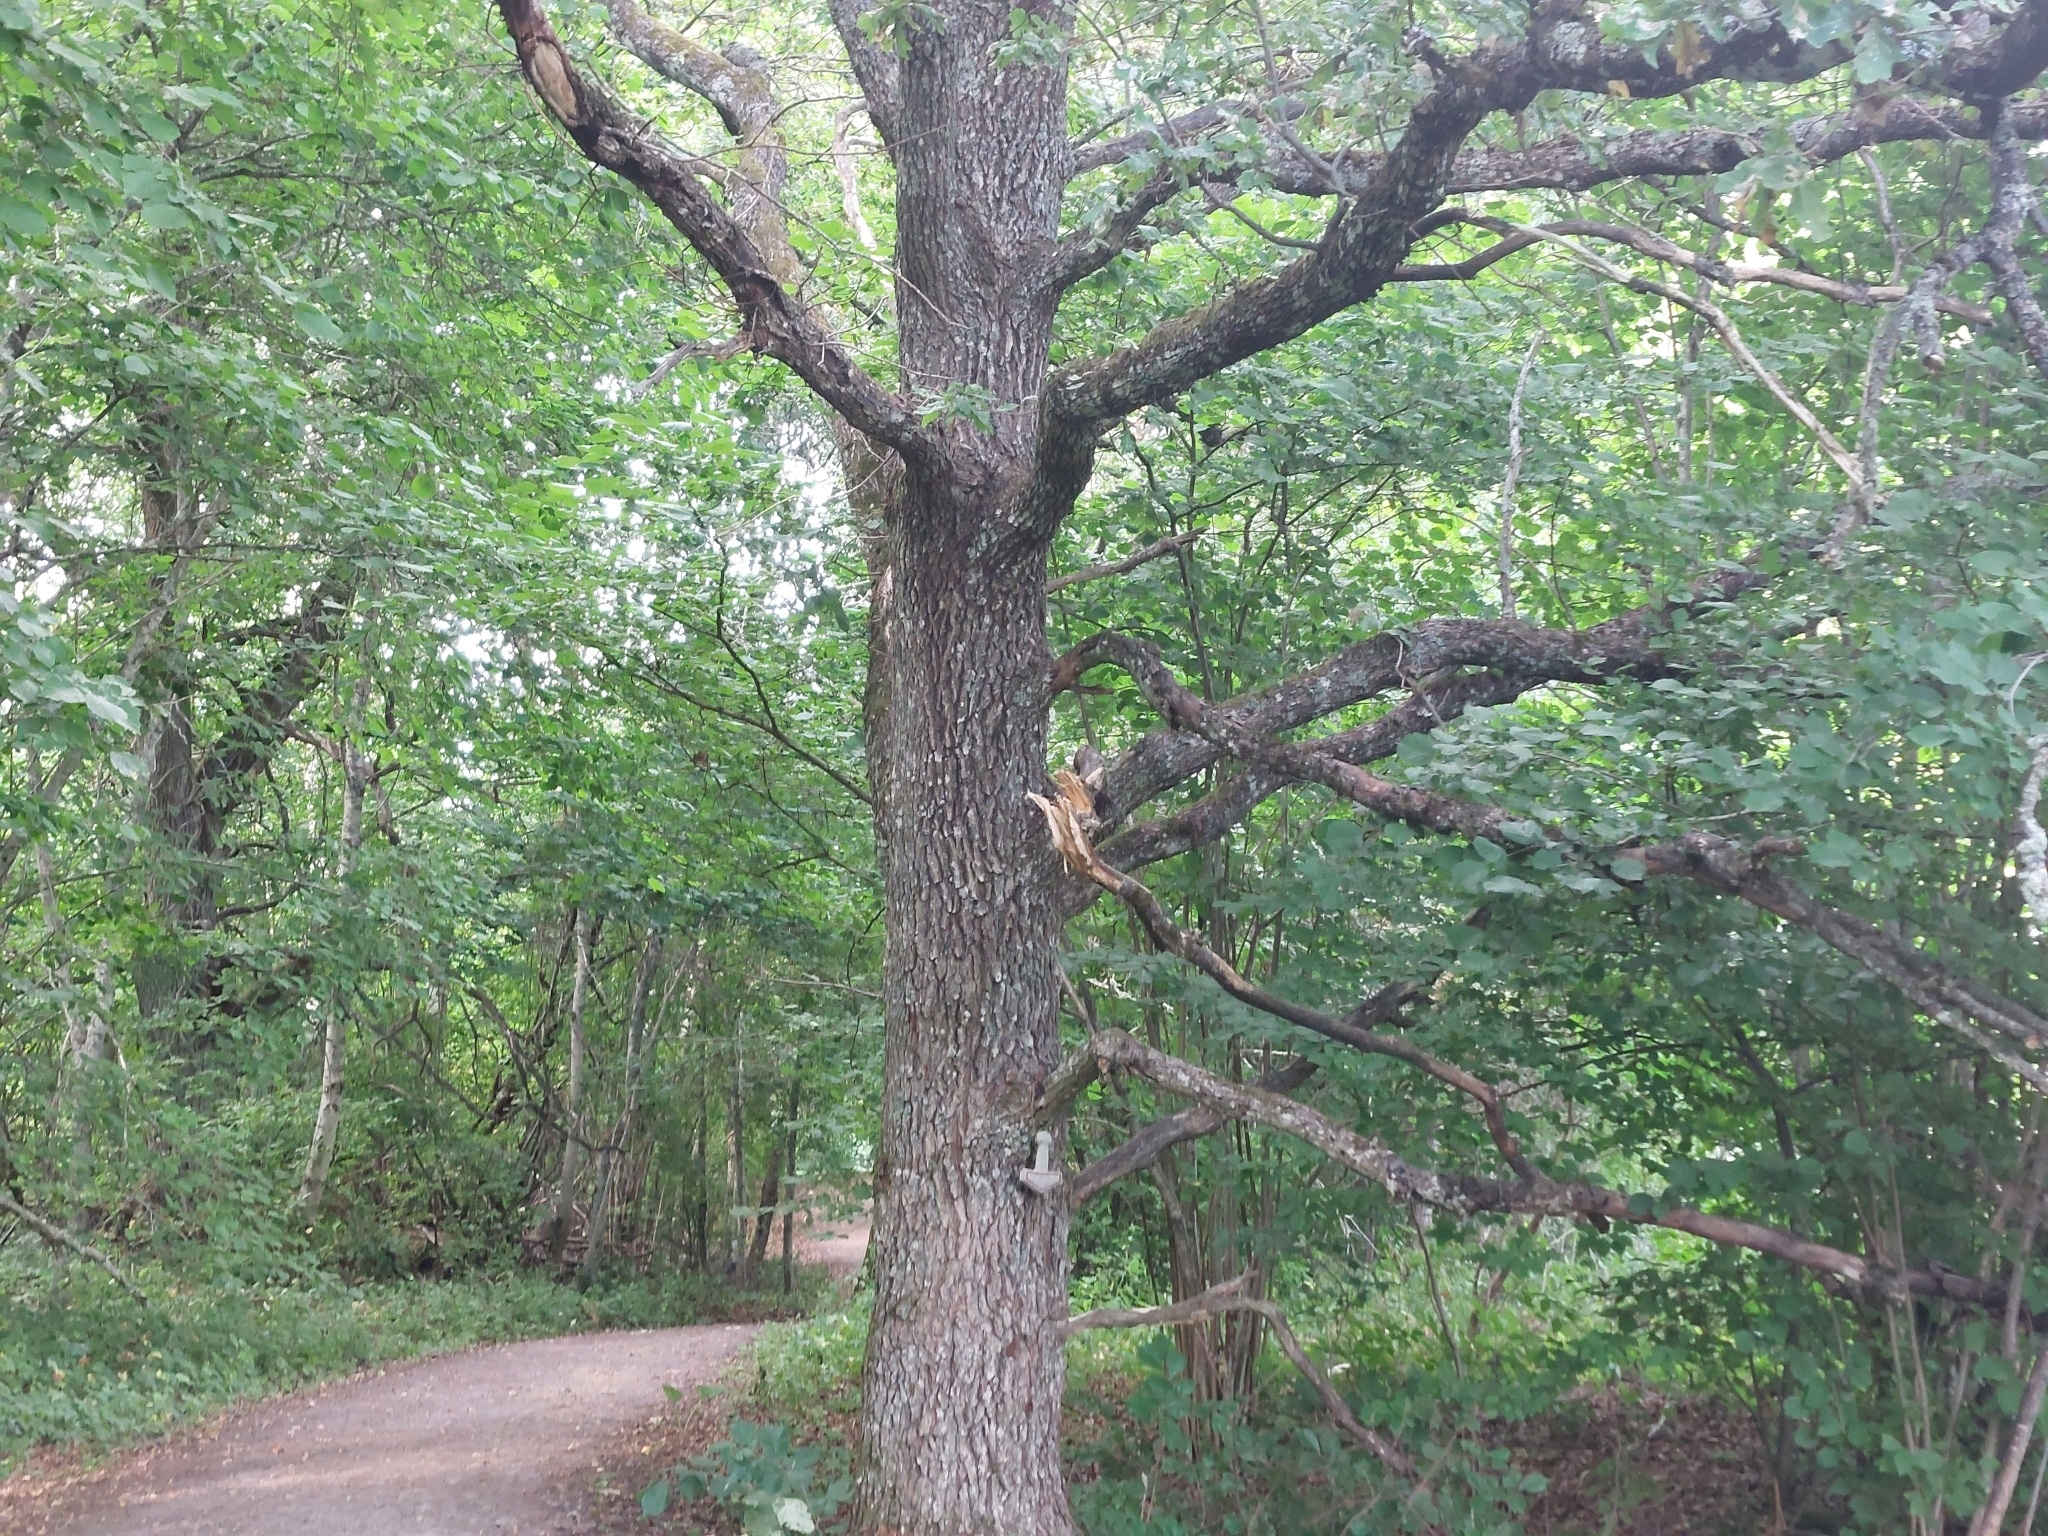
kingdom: Plantae
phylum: Tracheophyta
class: Magnoliopsida
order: Fagales
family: Fagaceae
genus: Quercus
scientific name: Quercus robur
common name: Pedunculate oak
